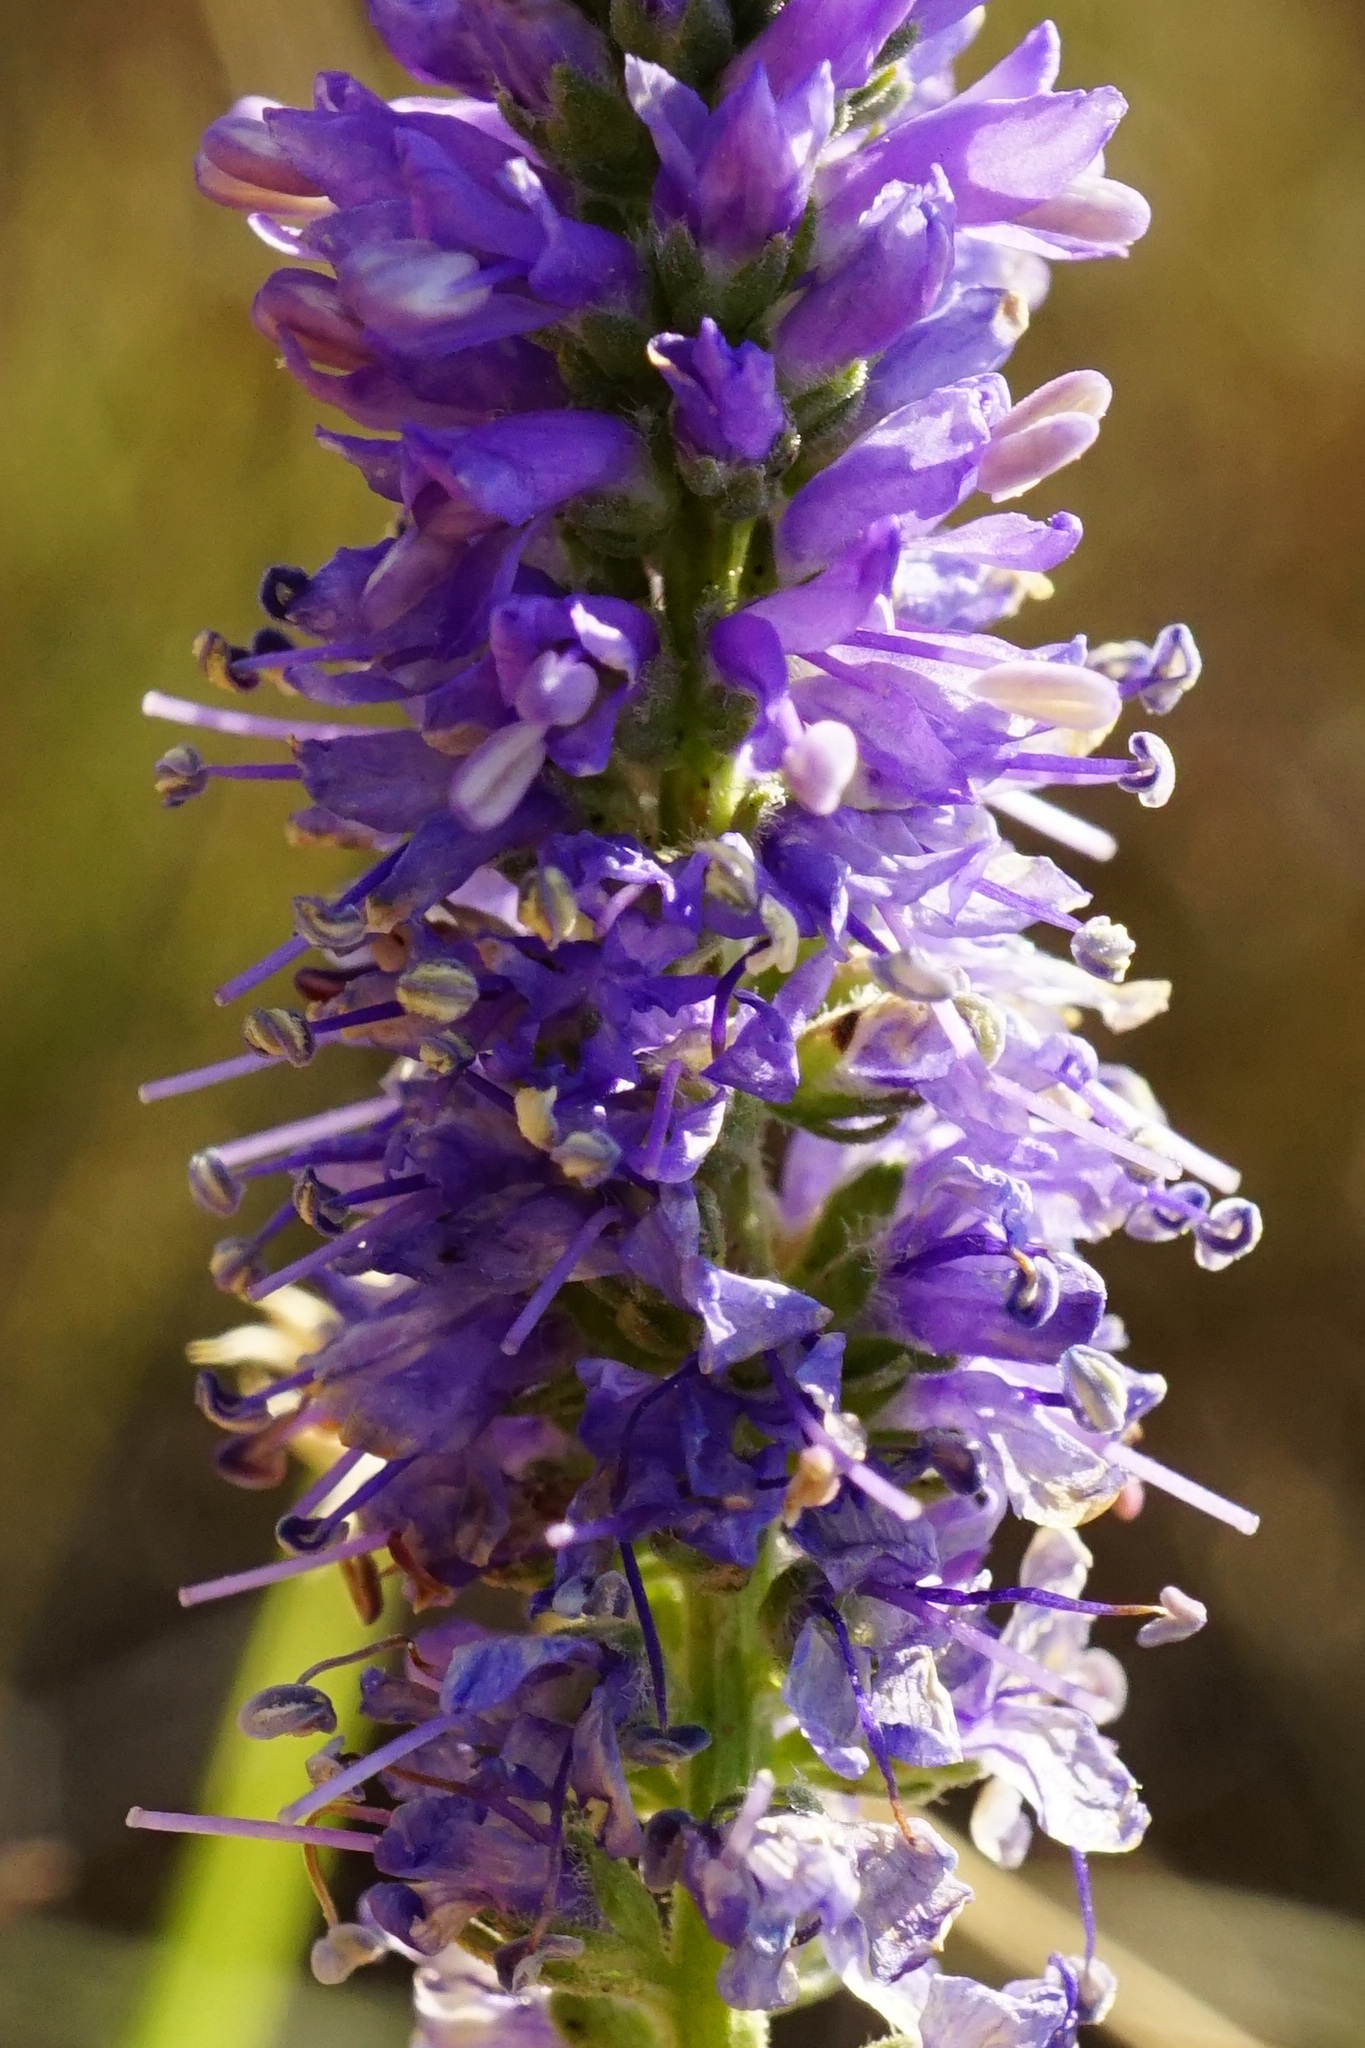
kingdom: Plantae
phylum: Tracheophyta
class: Magnoliopsida
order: Lamiales
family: Plantaginaceae
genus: Veronica
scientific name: Veronica spicata
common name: Spiked speedwell
